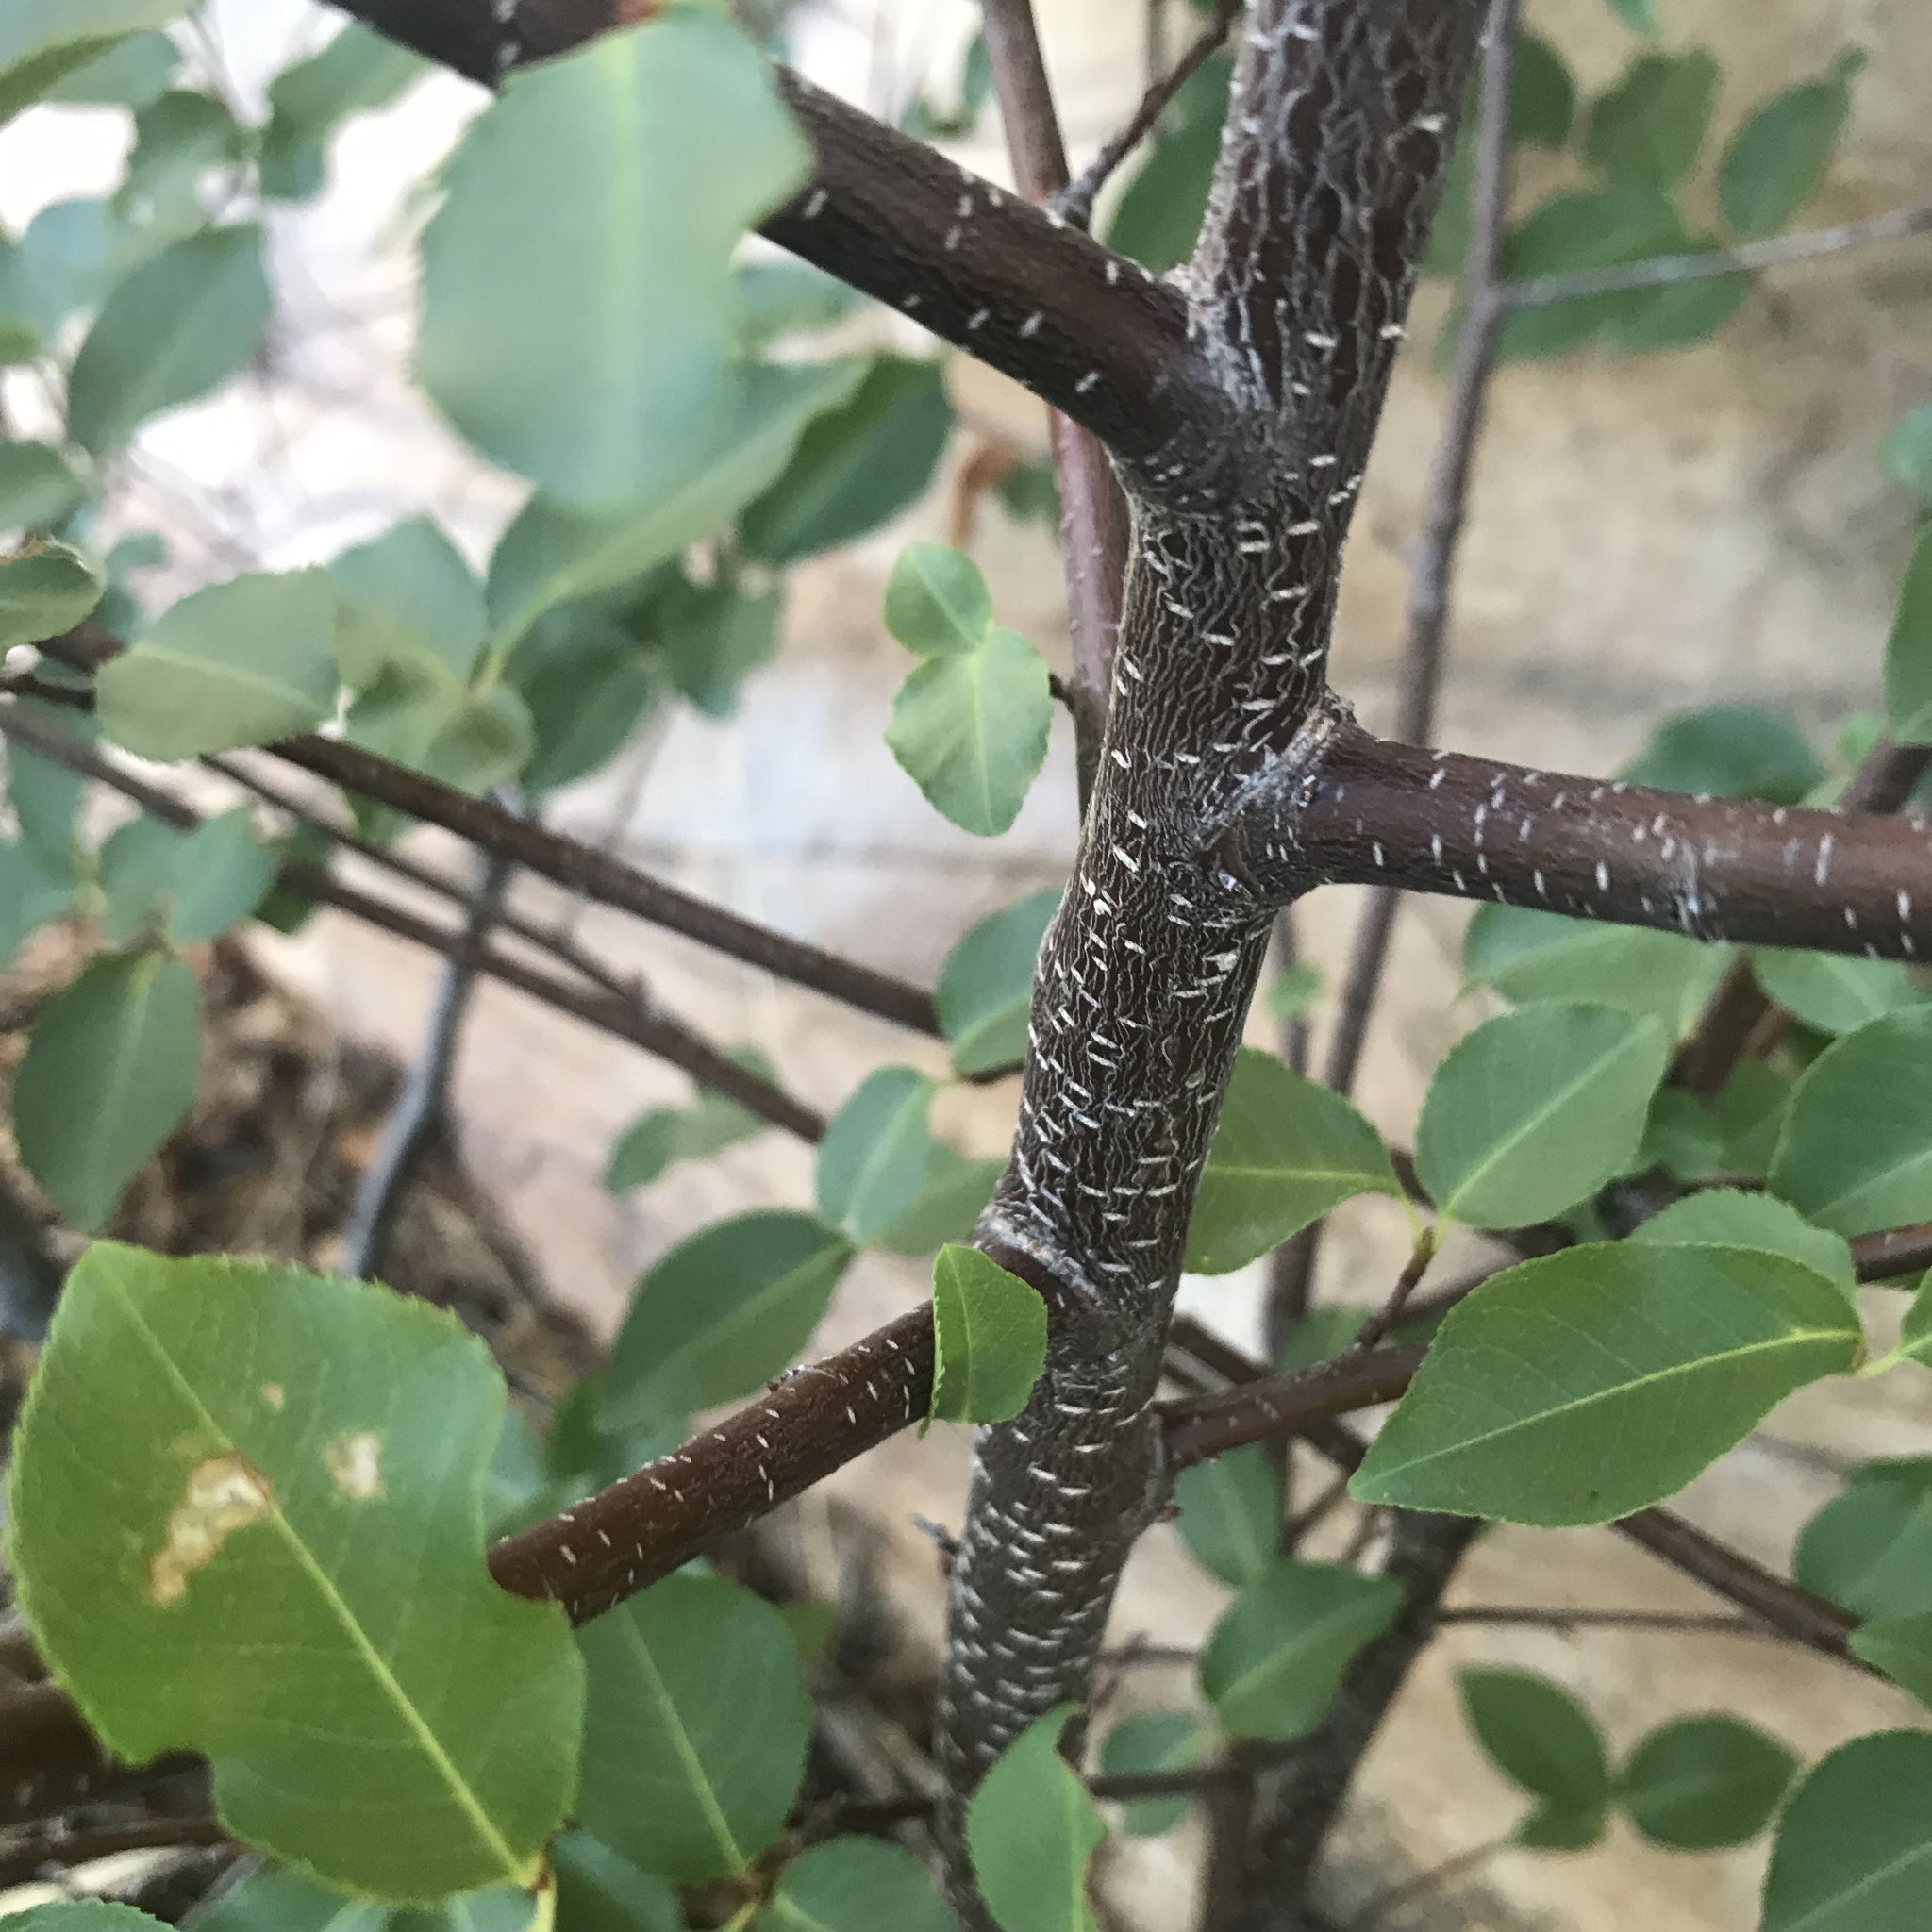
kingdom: Plantae
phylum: Tracheophyta
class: Magnoliopsida
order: Rosales
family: Rosaceae
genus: Prunus
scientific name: Prunus serotina
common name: Black cherry
